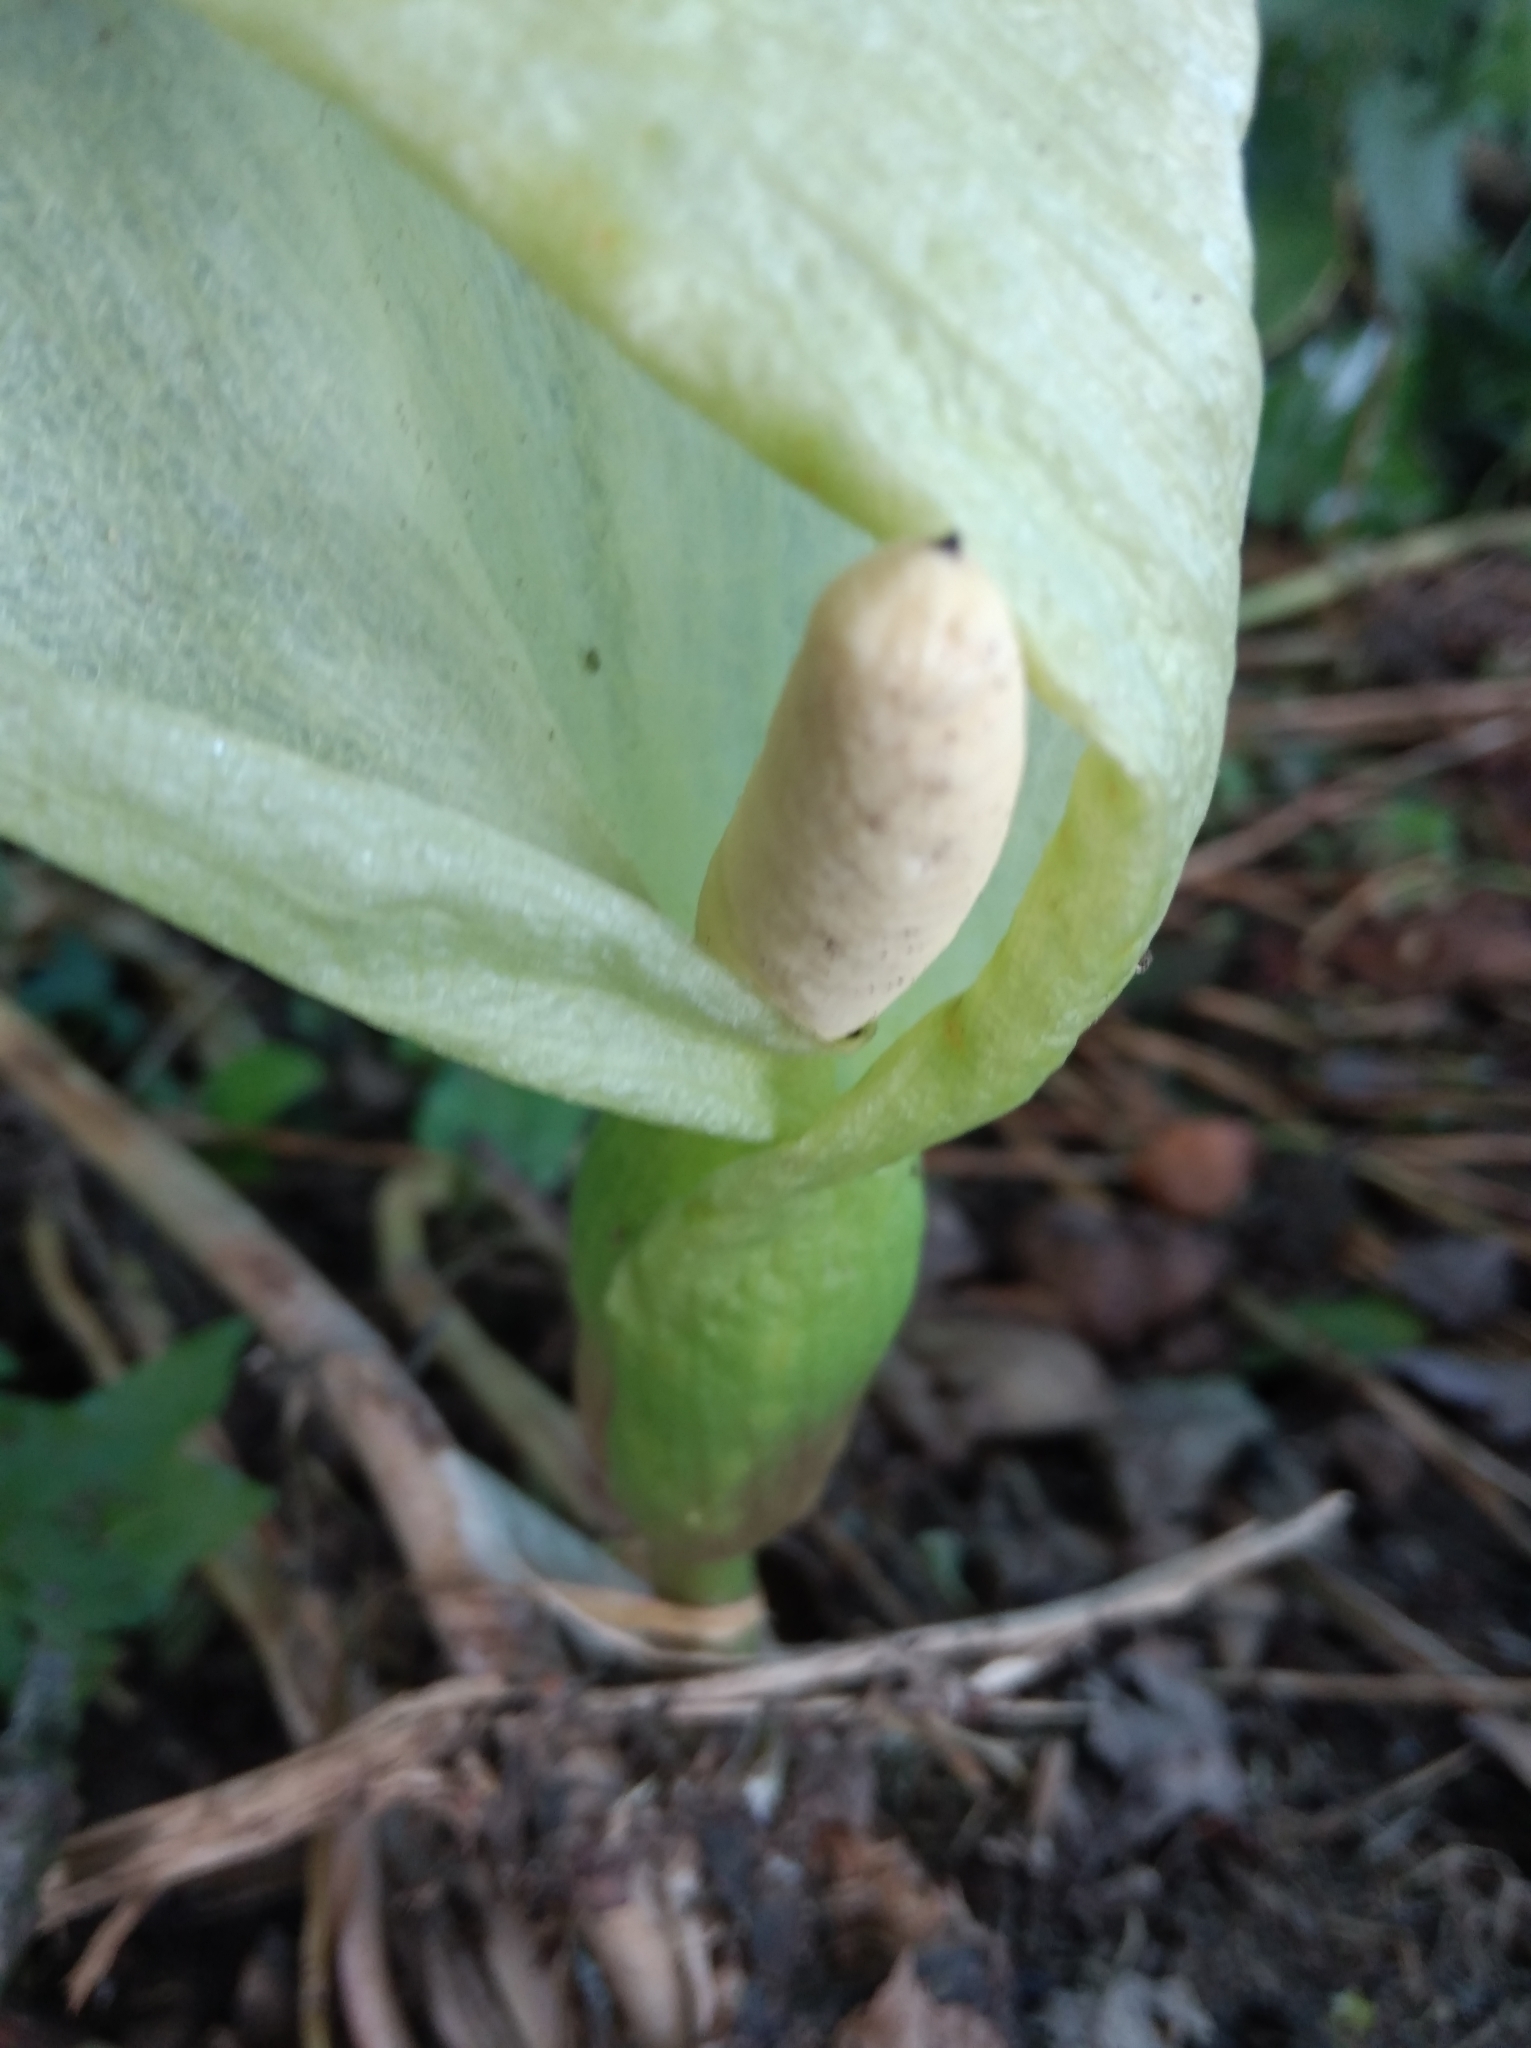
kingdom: Plantae
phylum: Tracheophyta
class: Liliopsida
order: Alismatales
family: Araceae
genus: Arum
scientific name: Arum italicum
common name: Italian lords-and-ladies
